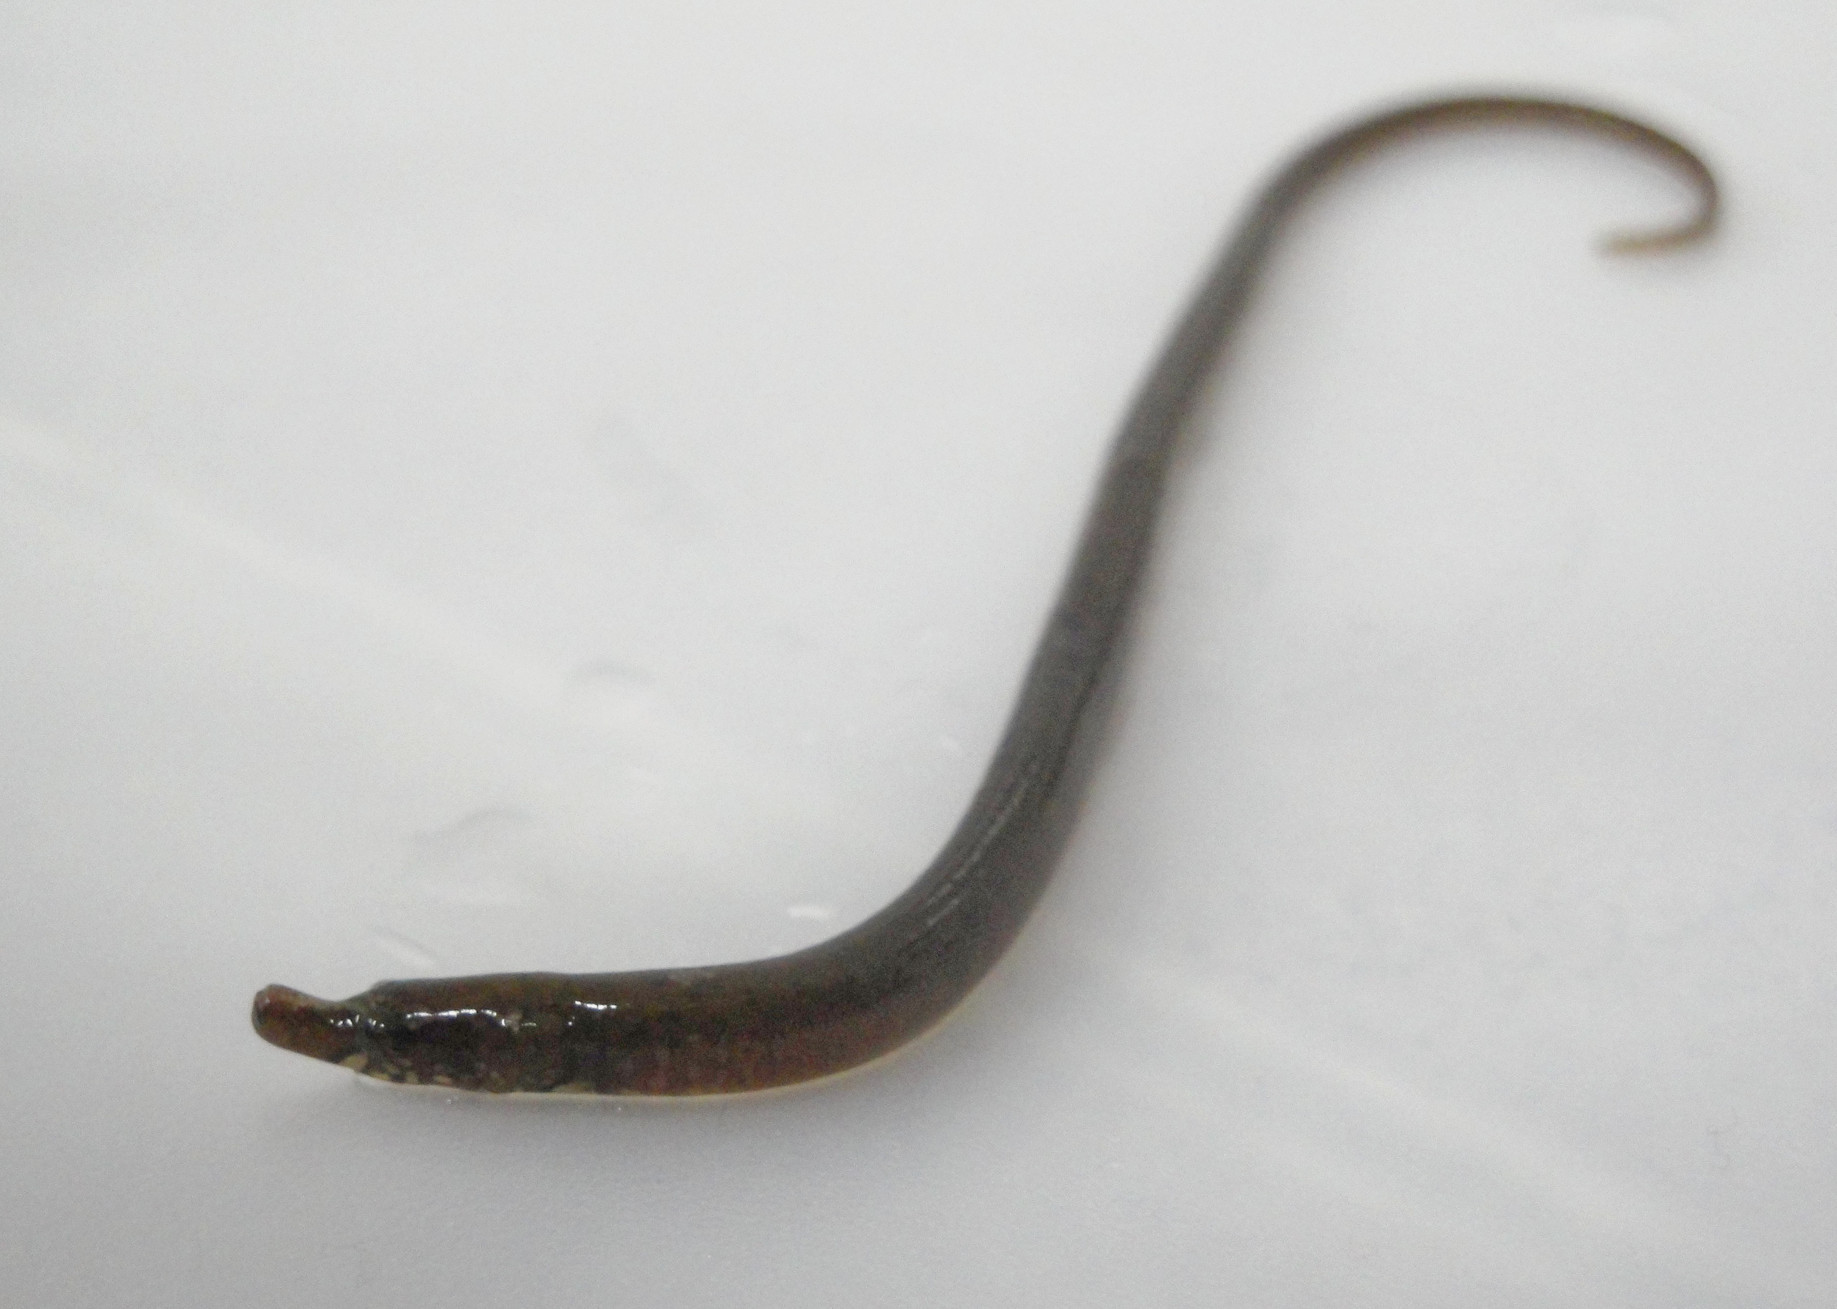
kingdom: Animalia
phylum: Chordata
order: Syngnathiformes
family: Syngnathidae
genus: Nerophis
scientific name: Nerophis lumbriciformis
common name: Worm pipefish
